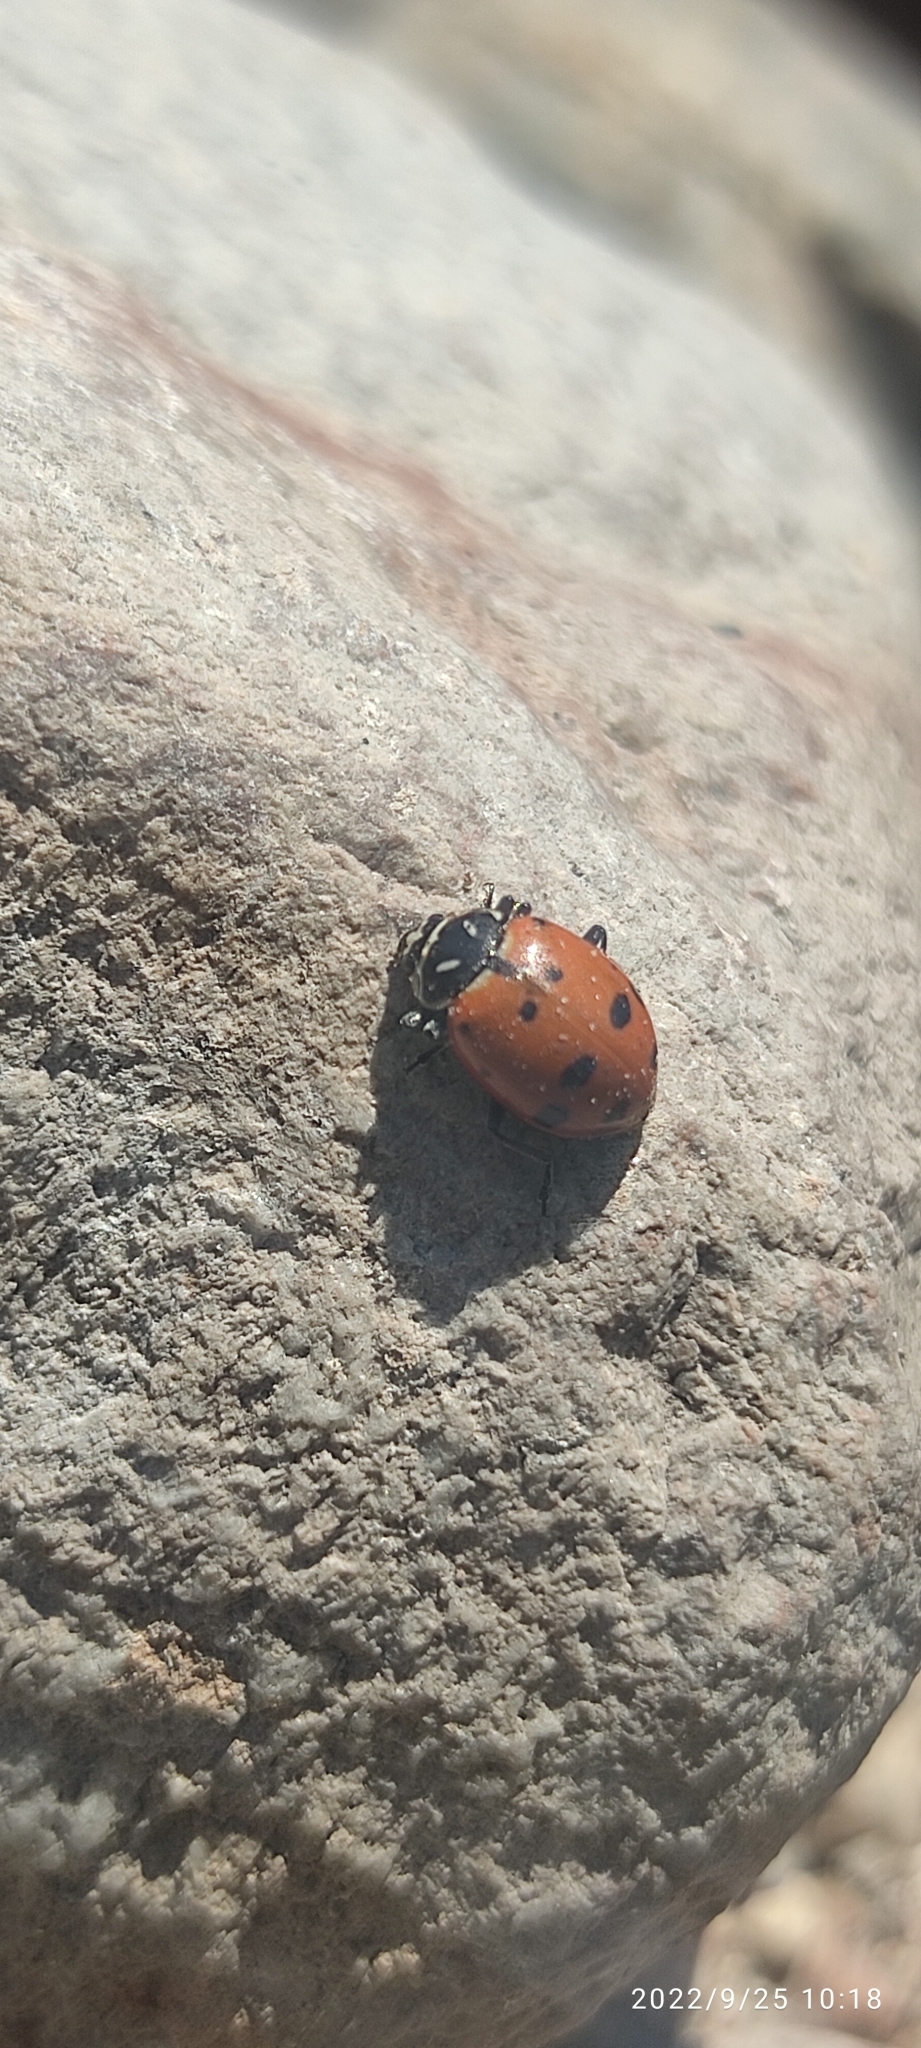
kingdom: Animalia
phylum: Arthropoda
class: Insecta
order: Coleoptera
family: Coccinellidae
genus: Hippodamia
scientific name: Hippodamia convergens
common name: Convergent lady beetle
